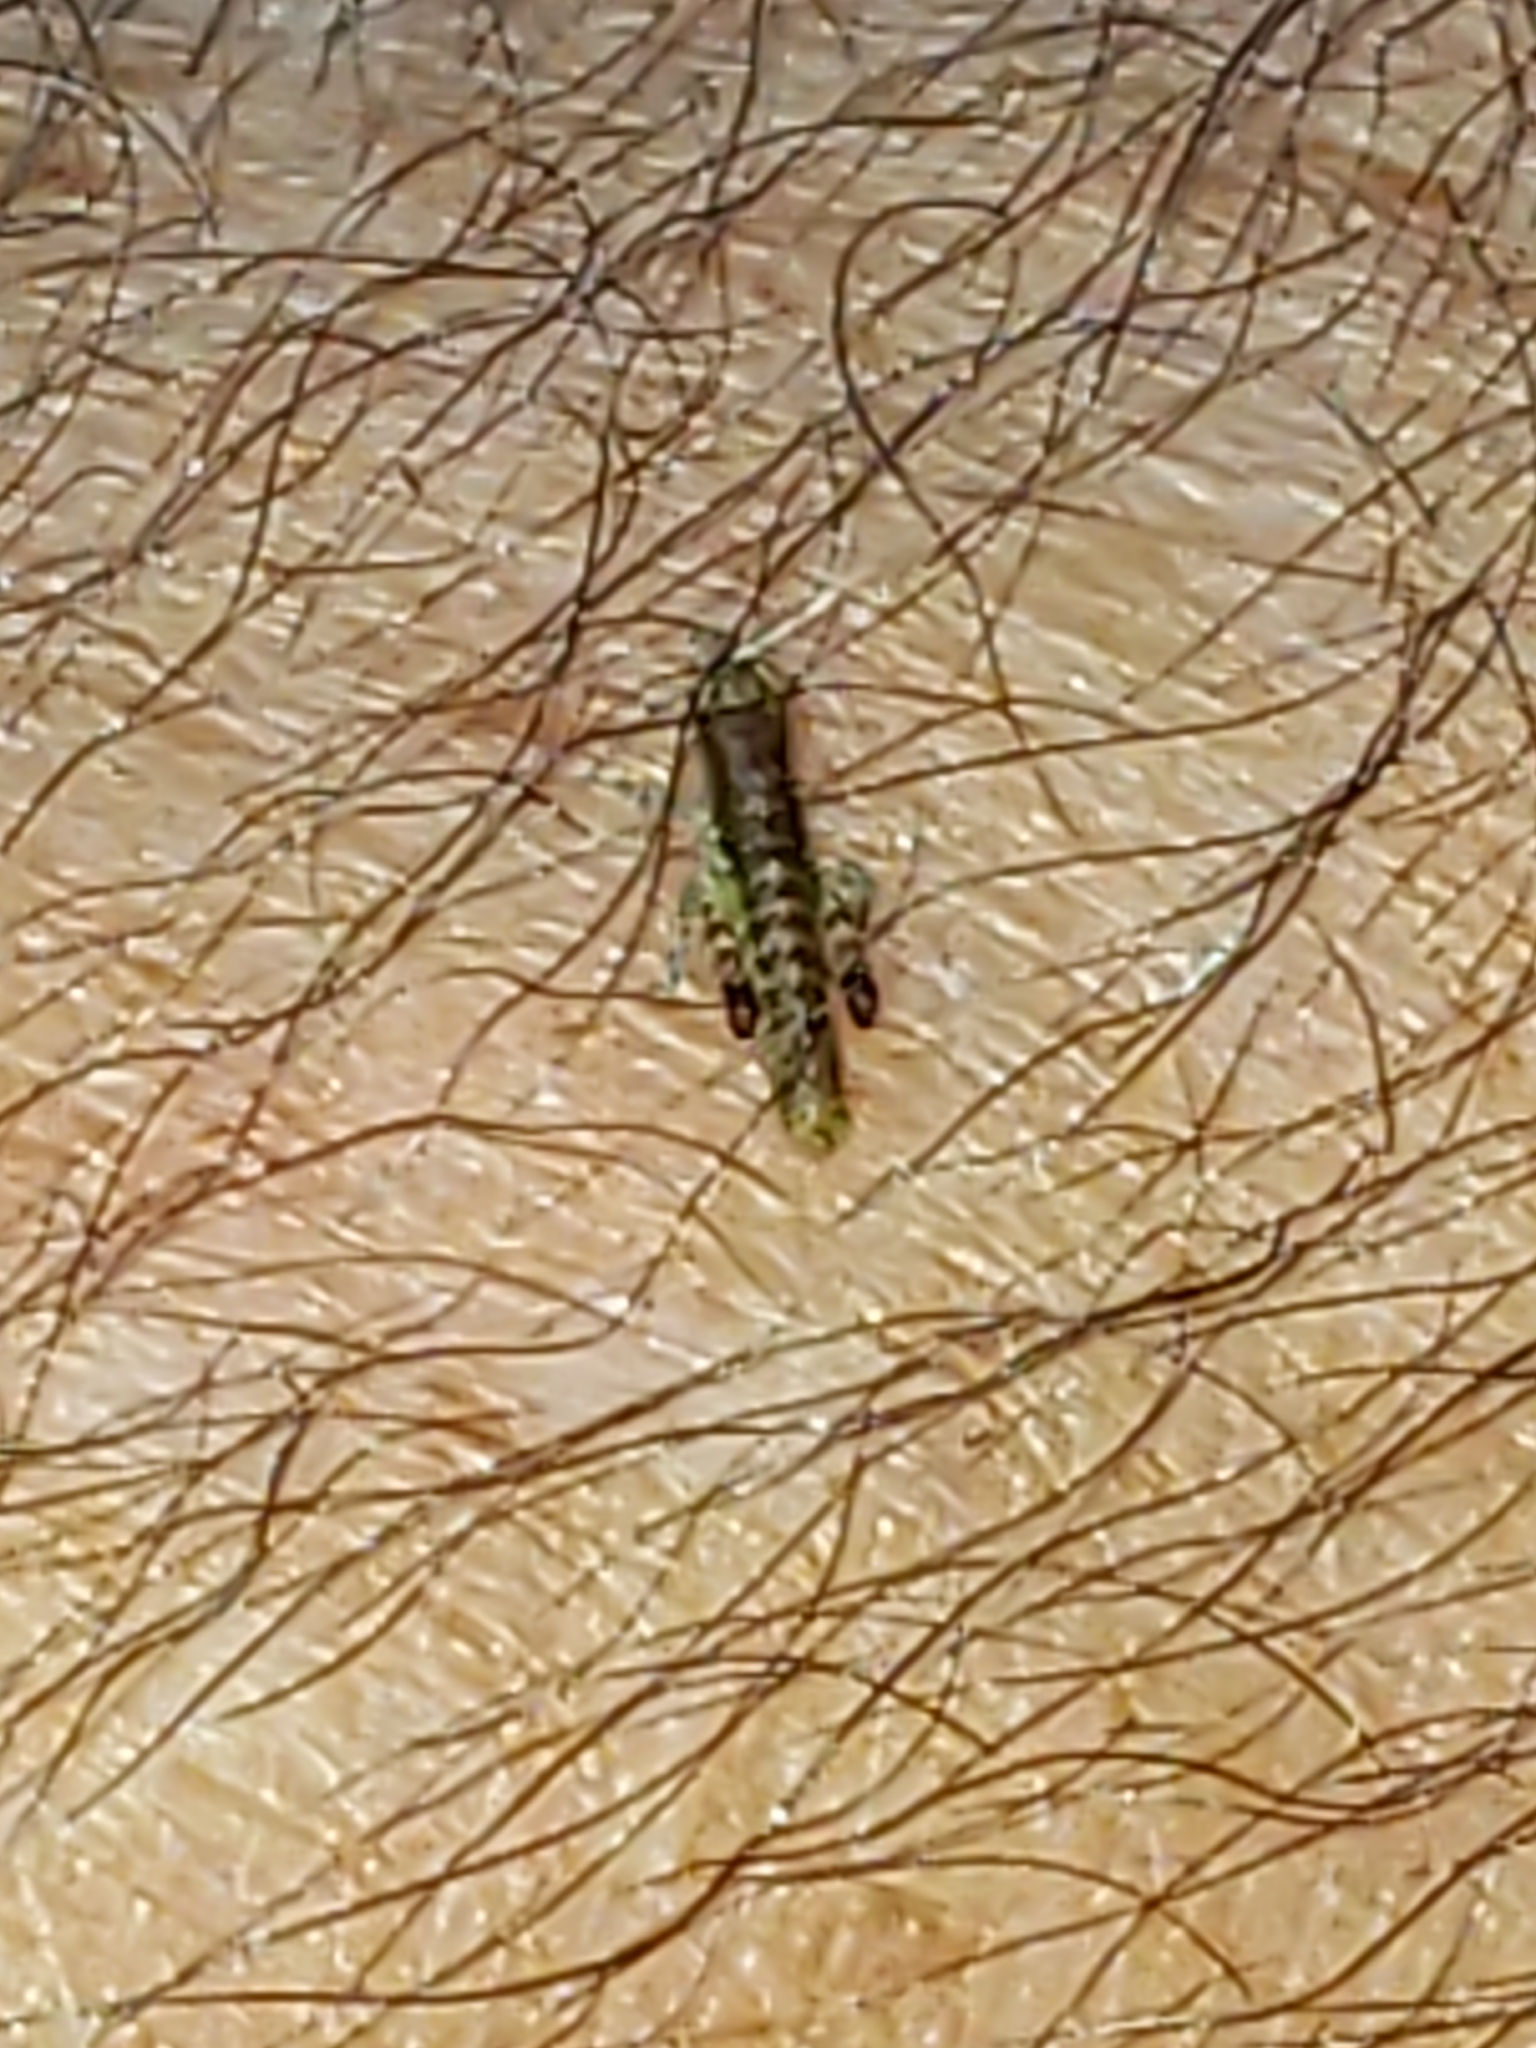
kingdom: Animalia
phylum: Arthropoda
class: Insecta
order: Orthoptera
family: Acrididae
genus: Chortophaga
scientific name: Chortophaga viridifasciata
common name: Green-striped grasshopper
